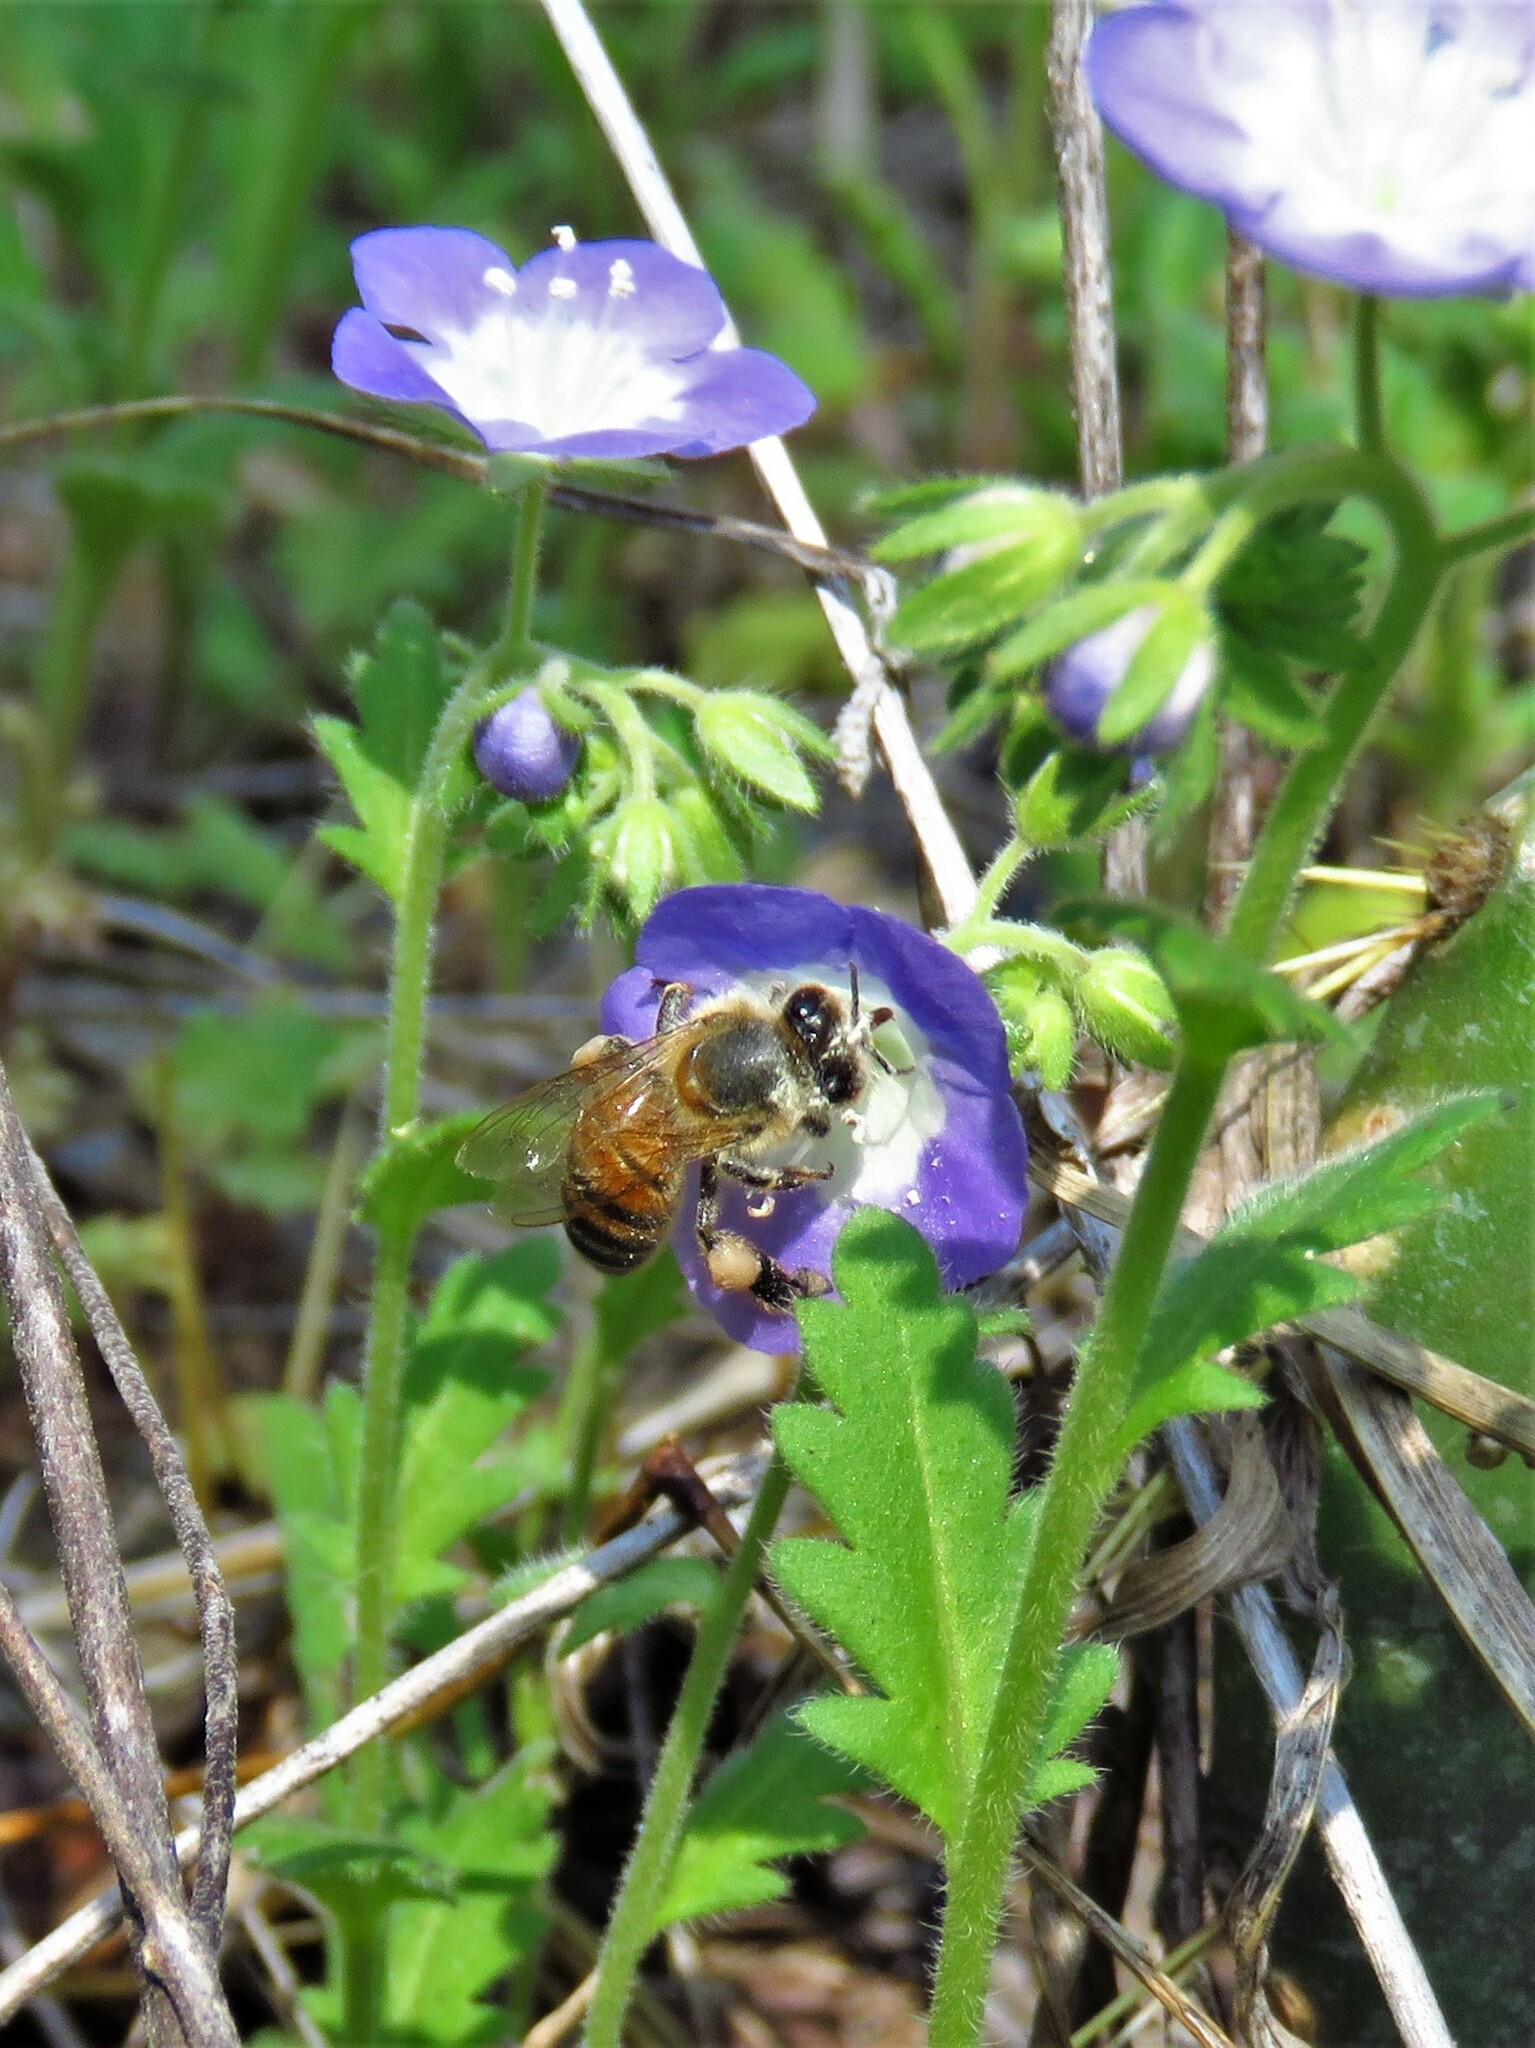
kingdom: Animalia
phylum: Arthropoda
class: Insecta
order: Hymenoptera
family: Apidae
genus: Apis
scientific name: Apis mellifera
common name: Honey bee
